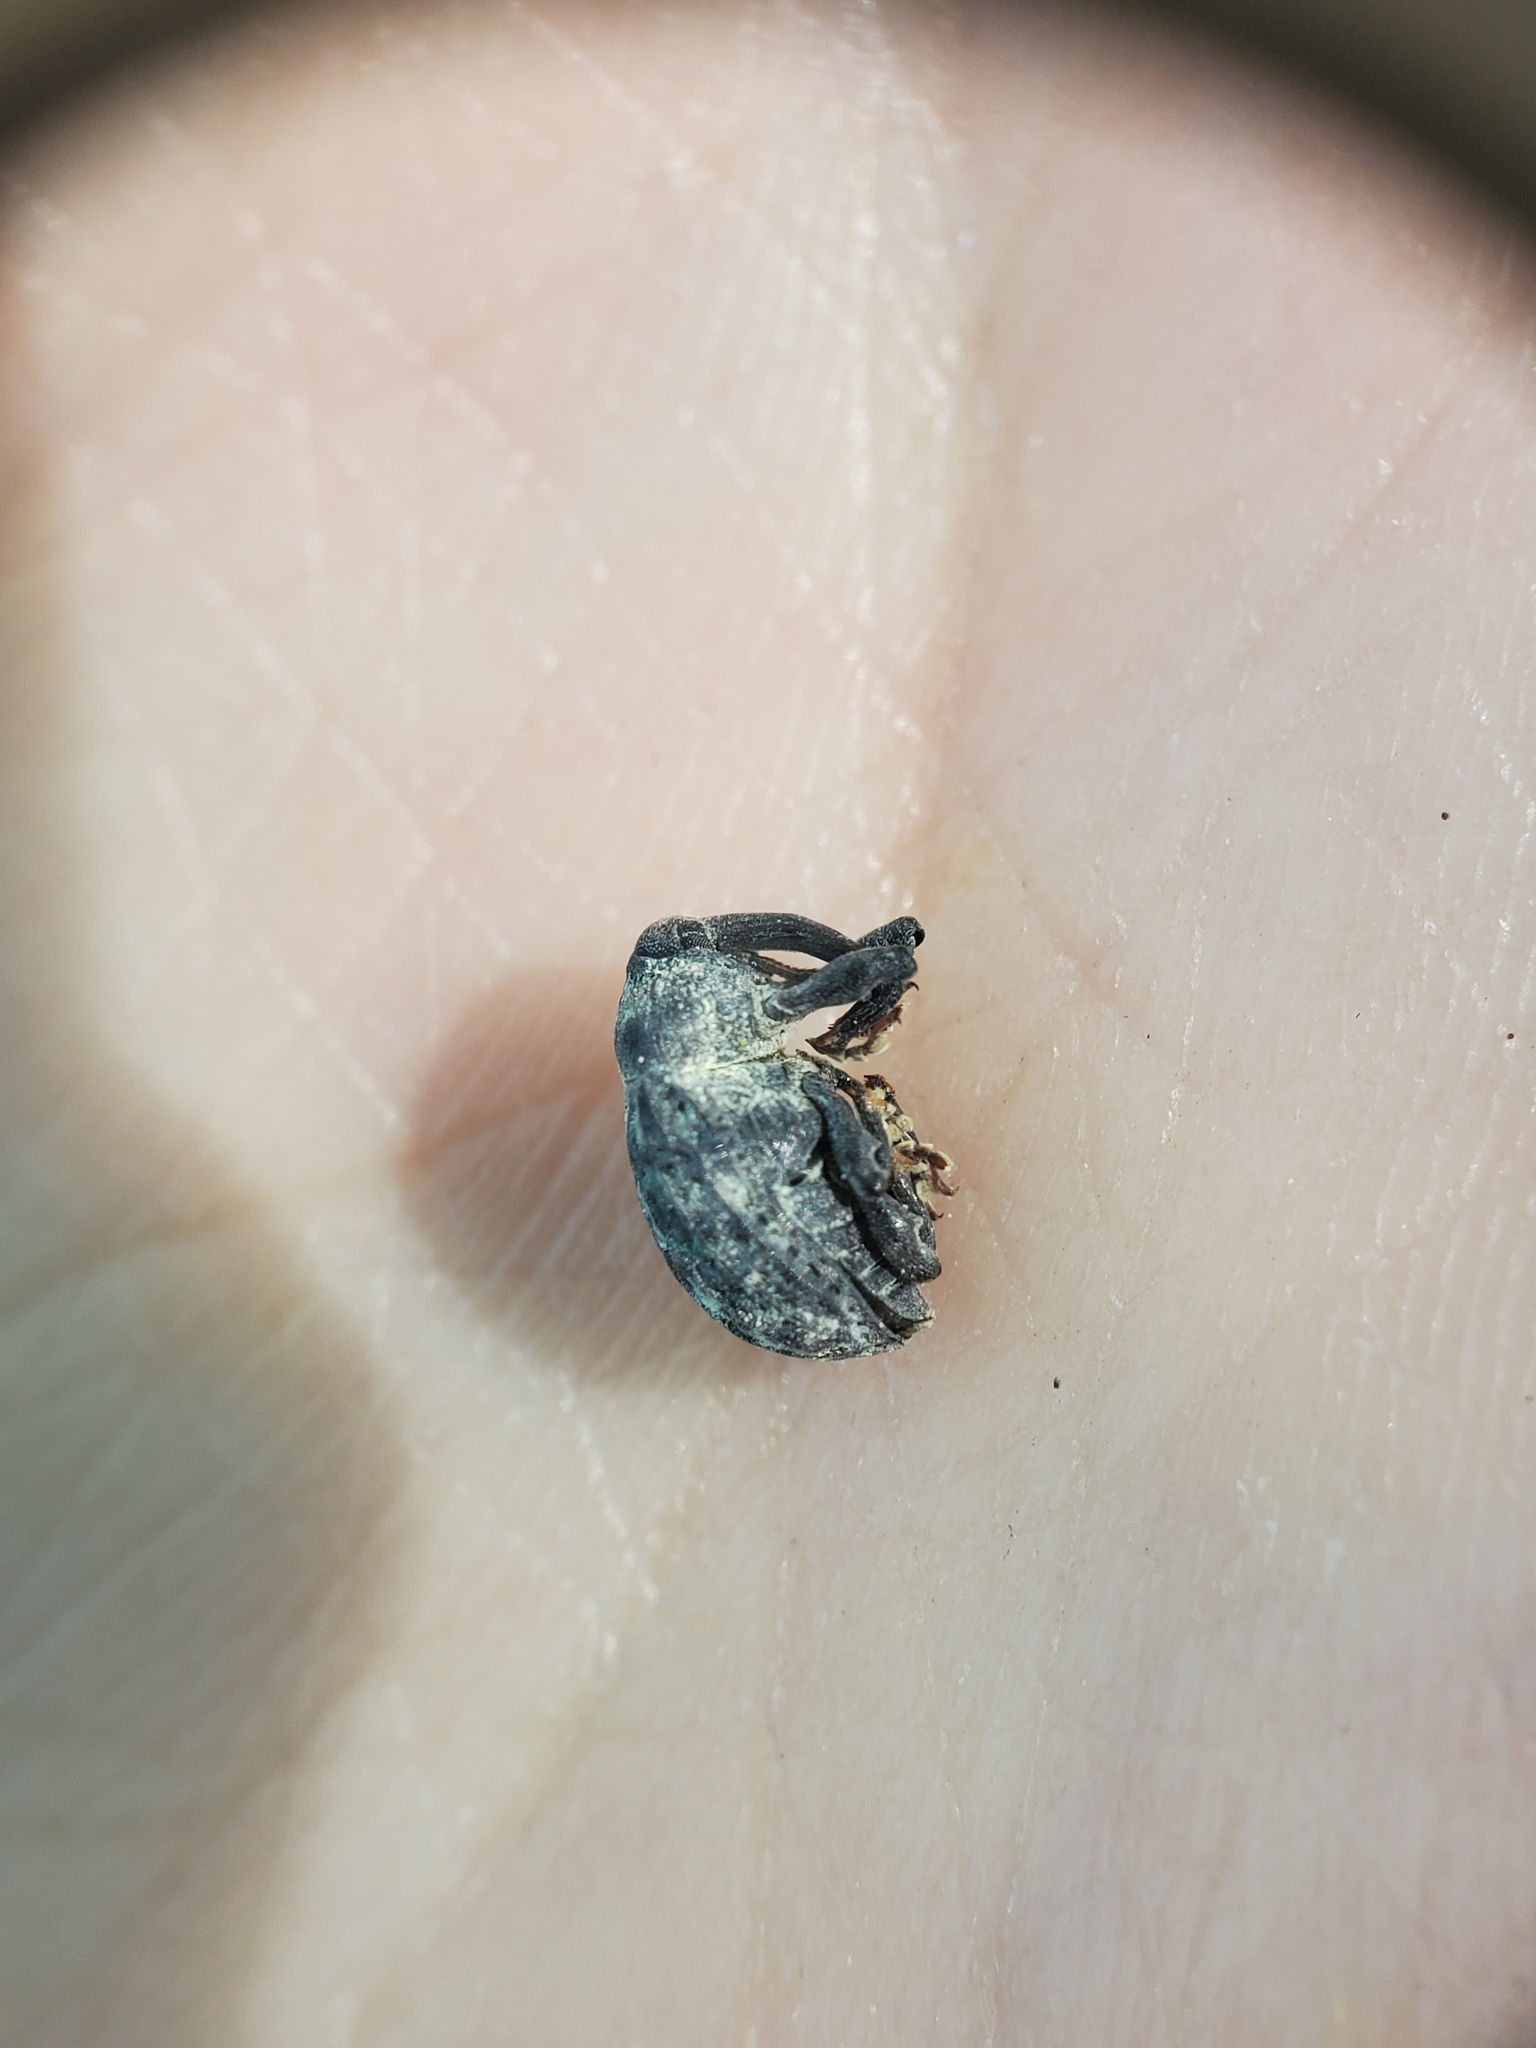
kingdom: Animalia
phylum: Arthropoda
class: Insecta
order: Coleoptera
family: Curculionidae
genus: Rhyssomatus
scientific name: Rhyssomatus lineaticollis
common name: Milkweed stem weevil
